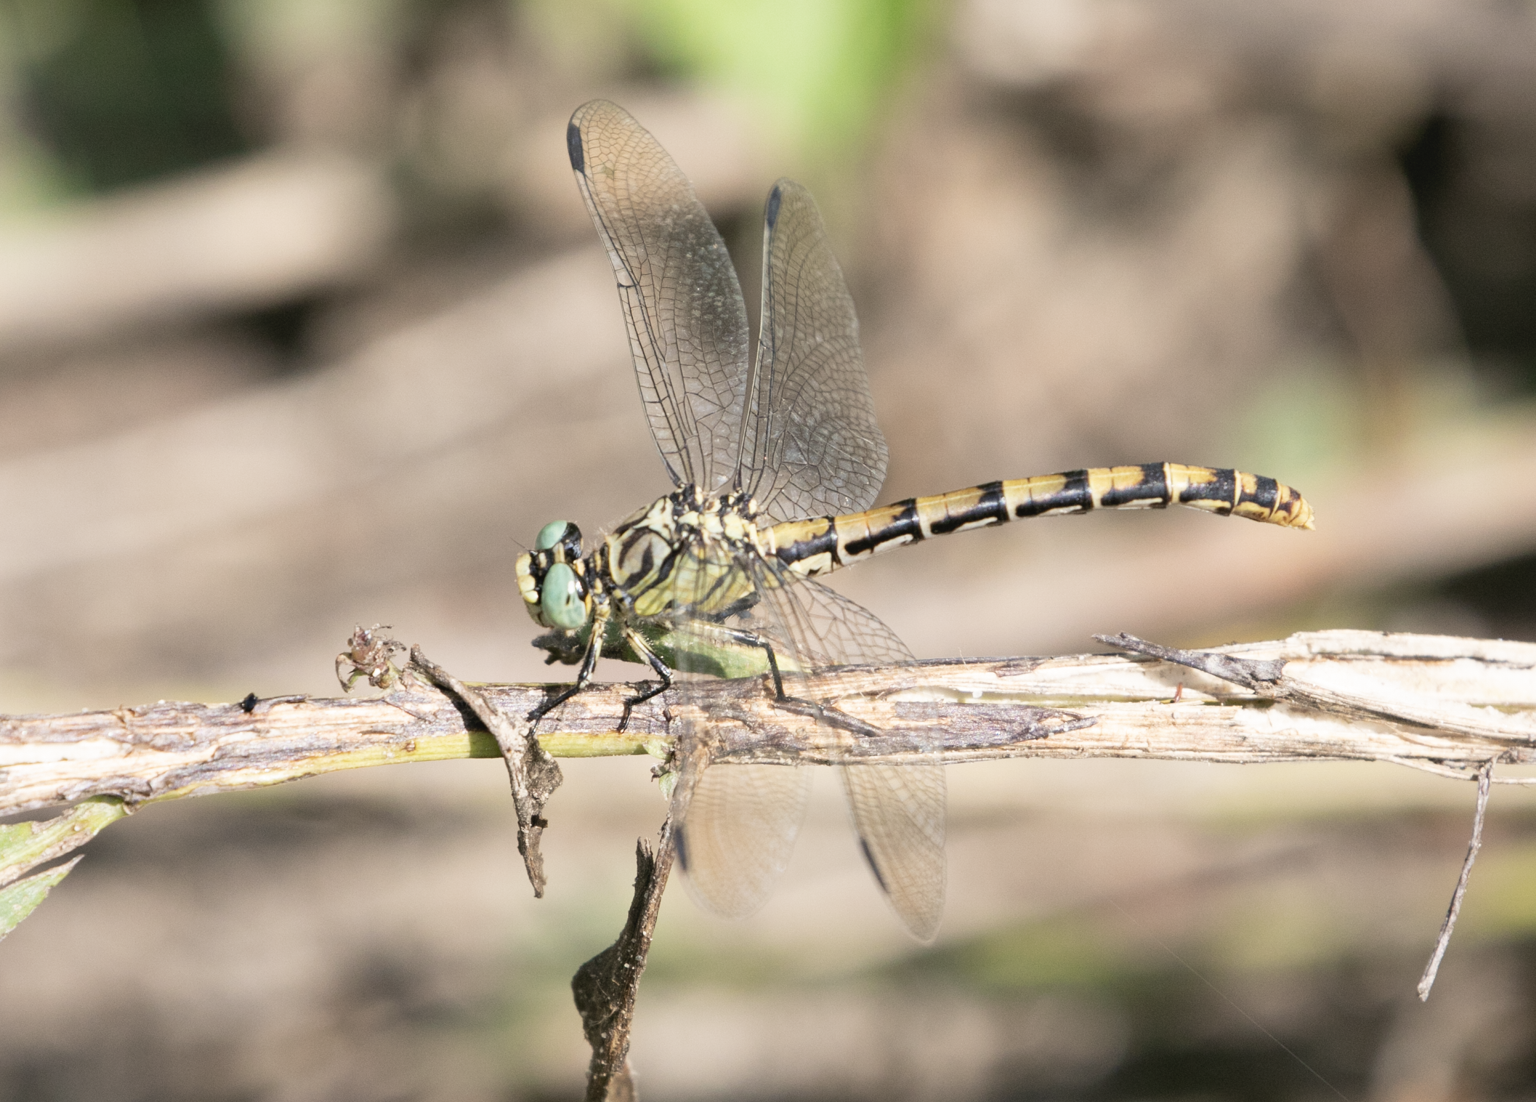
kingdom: Animalia
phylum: Arthropoda
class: Insecta
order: Odonata
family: Gomphidae
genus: Onychogomphus
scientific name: Onychogomphus forcipatus
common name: Small pincertail
